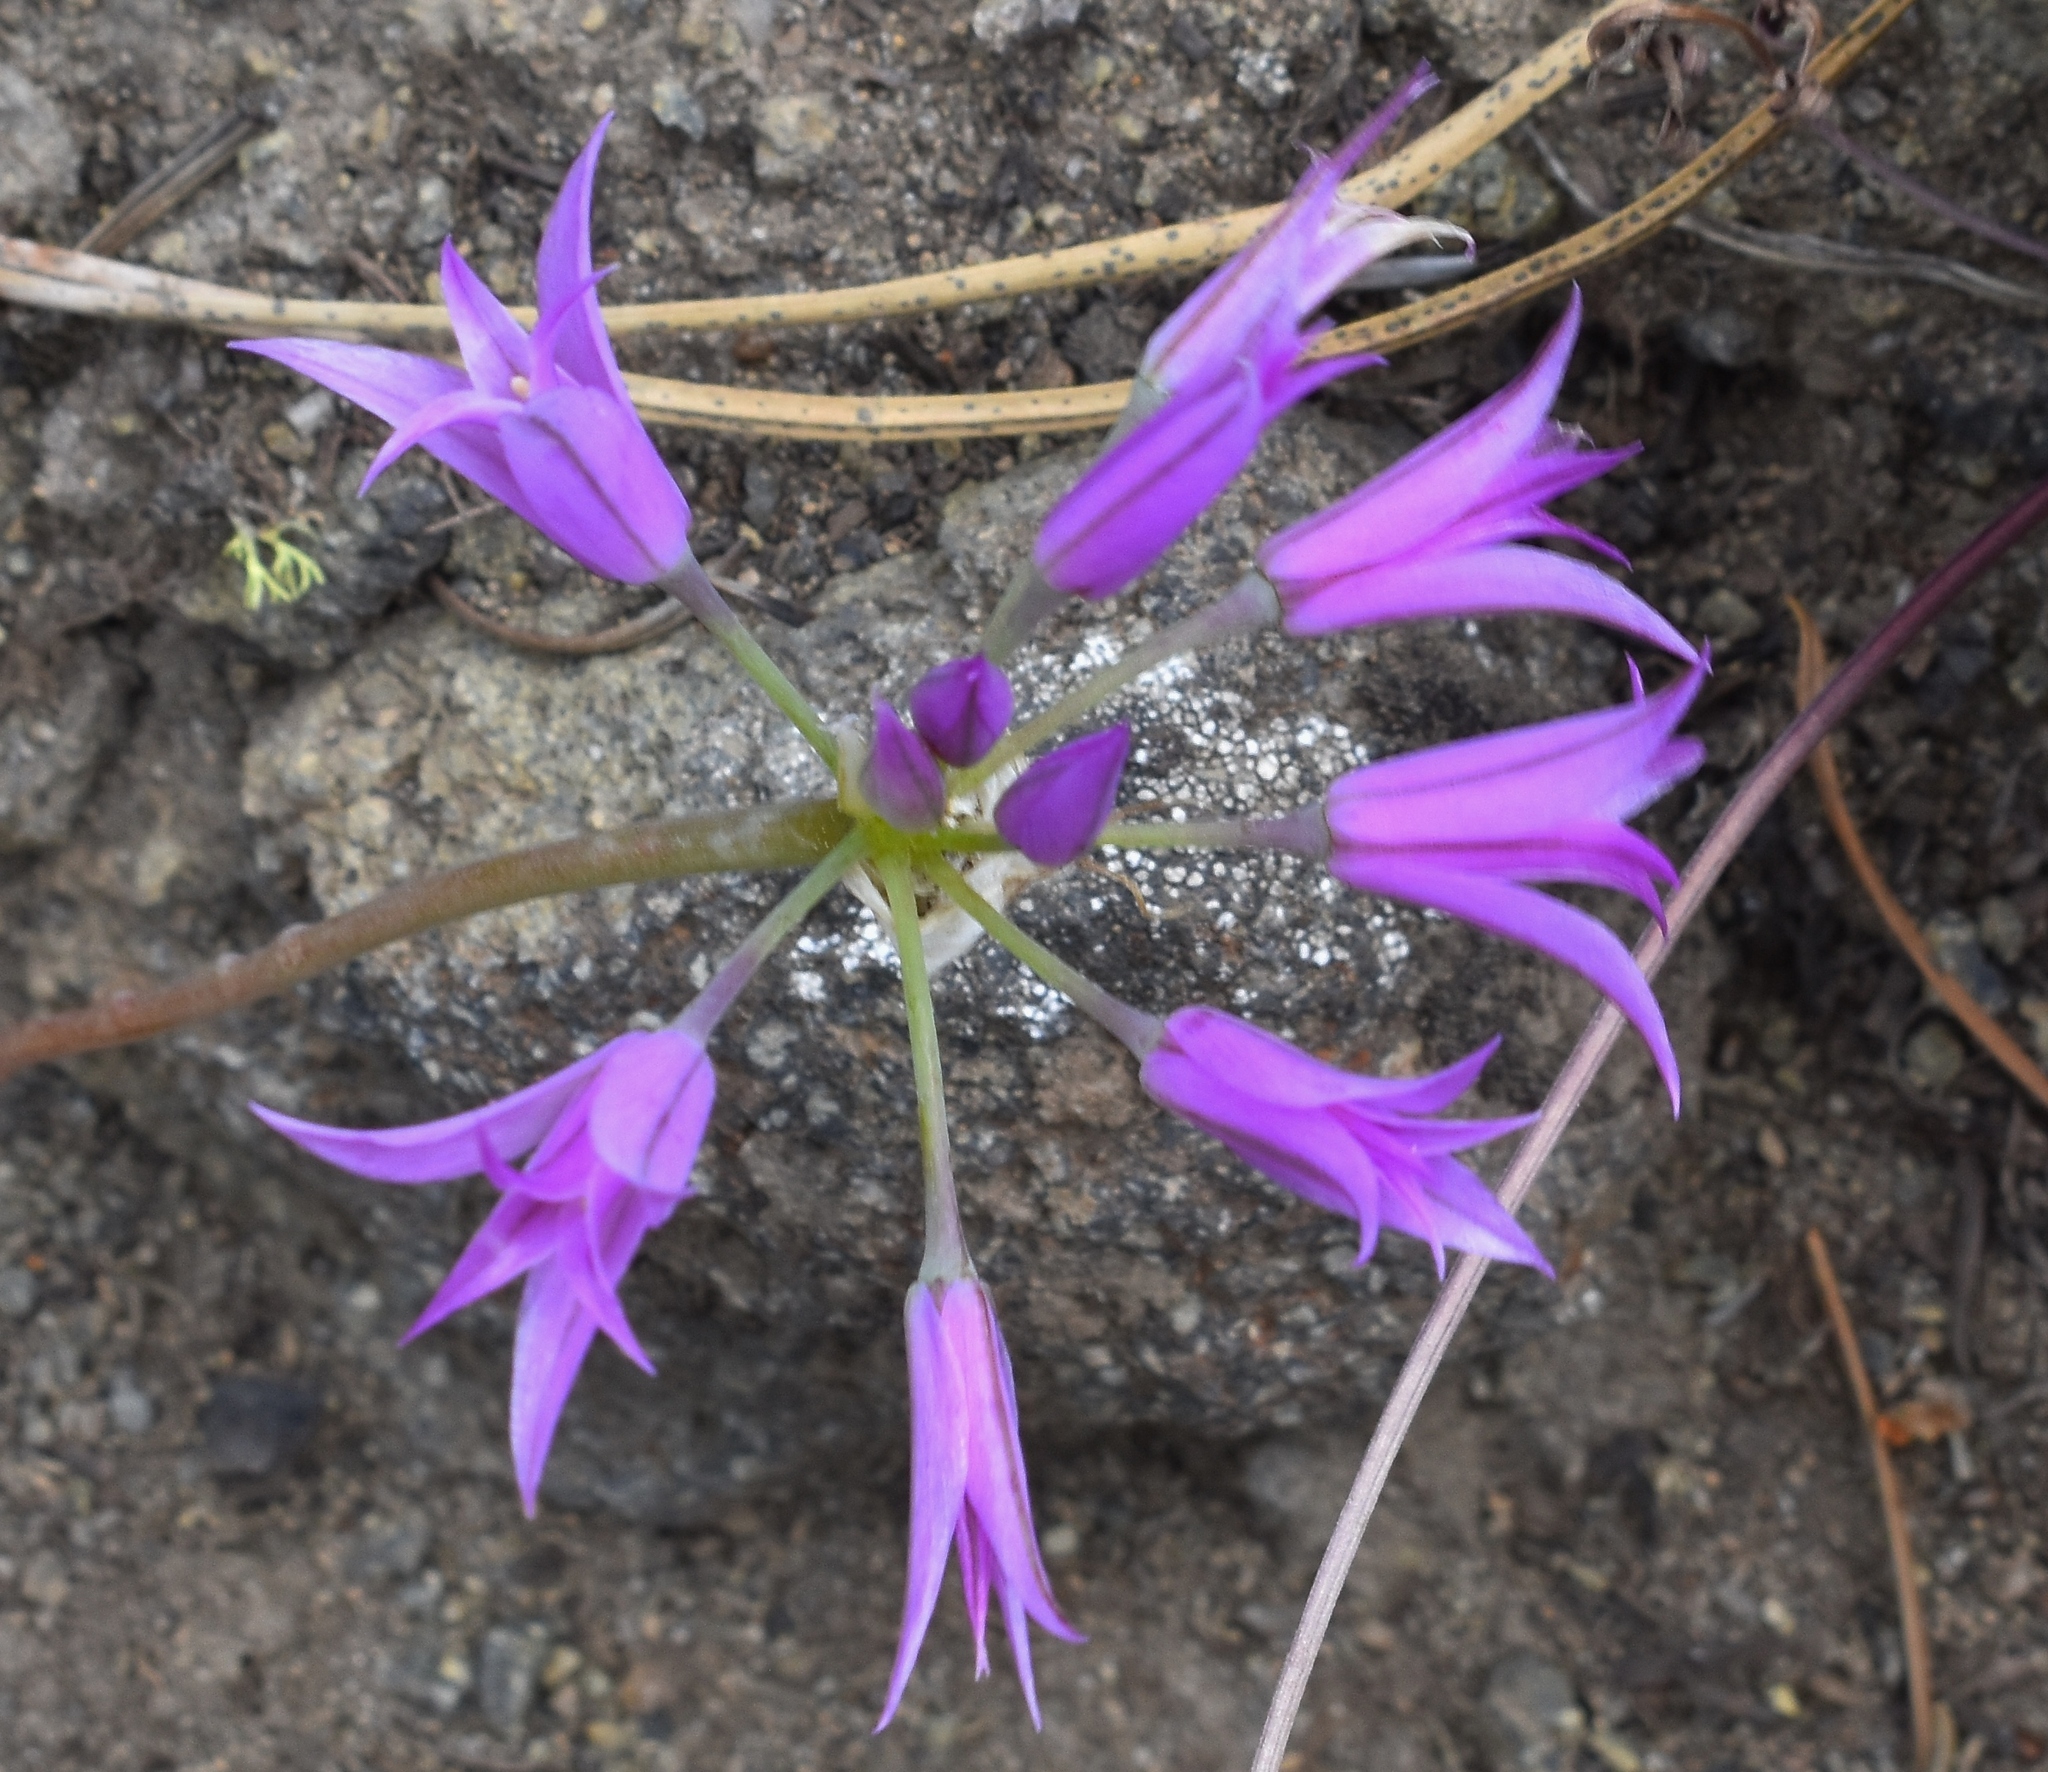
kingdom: Plantae
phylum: Tracheophyta
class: Liliopsida
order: Asparagales
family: Amaryllidaceae
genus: Allium
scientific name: Allium acuminatum
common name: Hooker's onion
